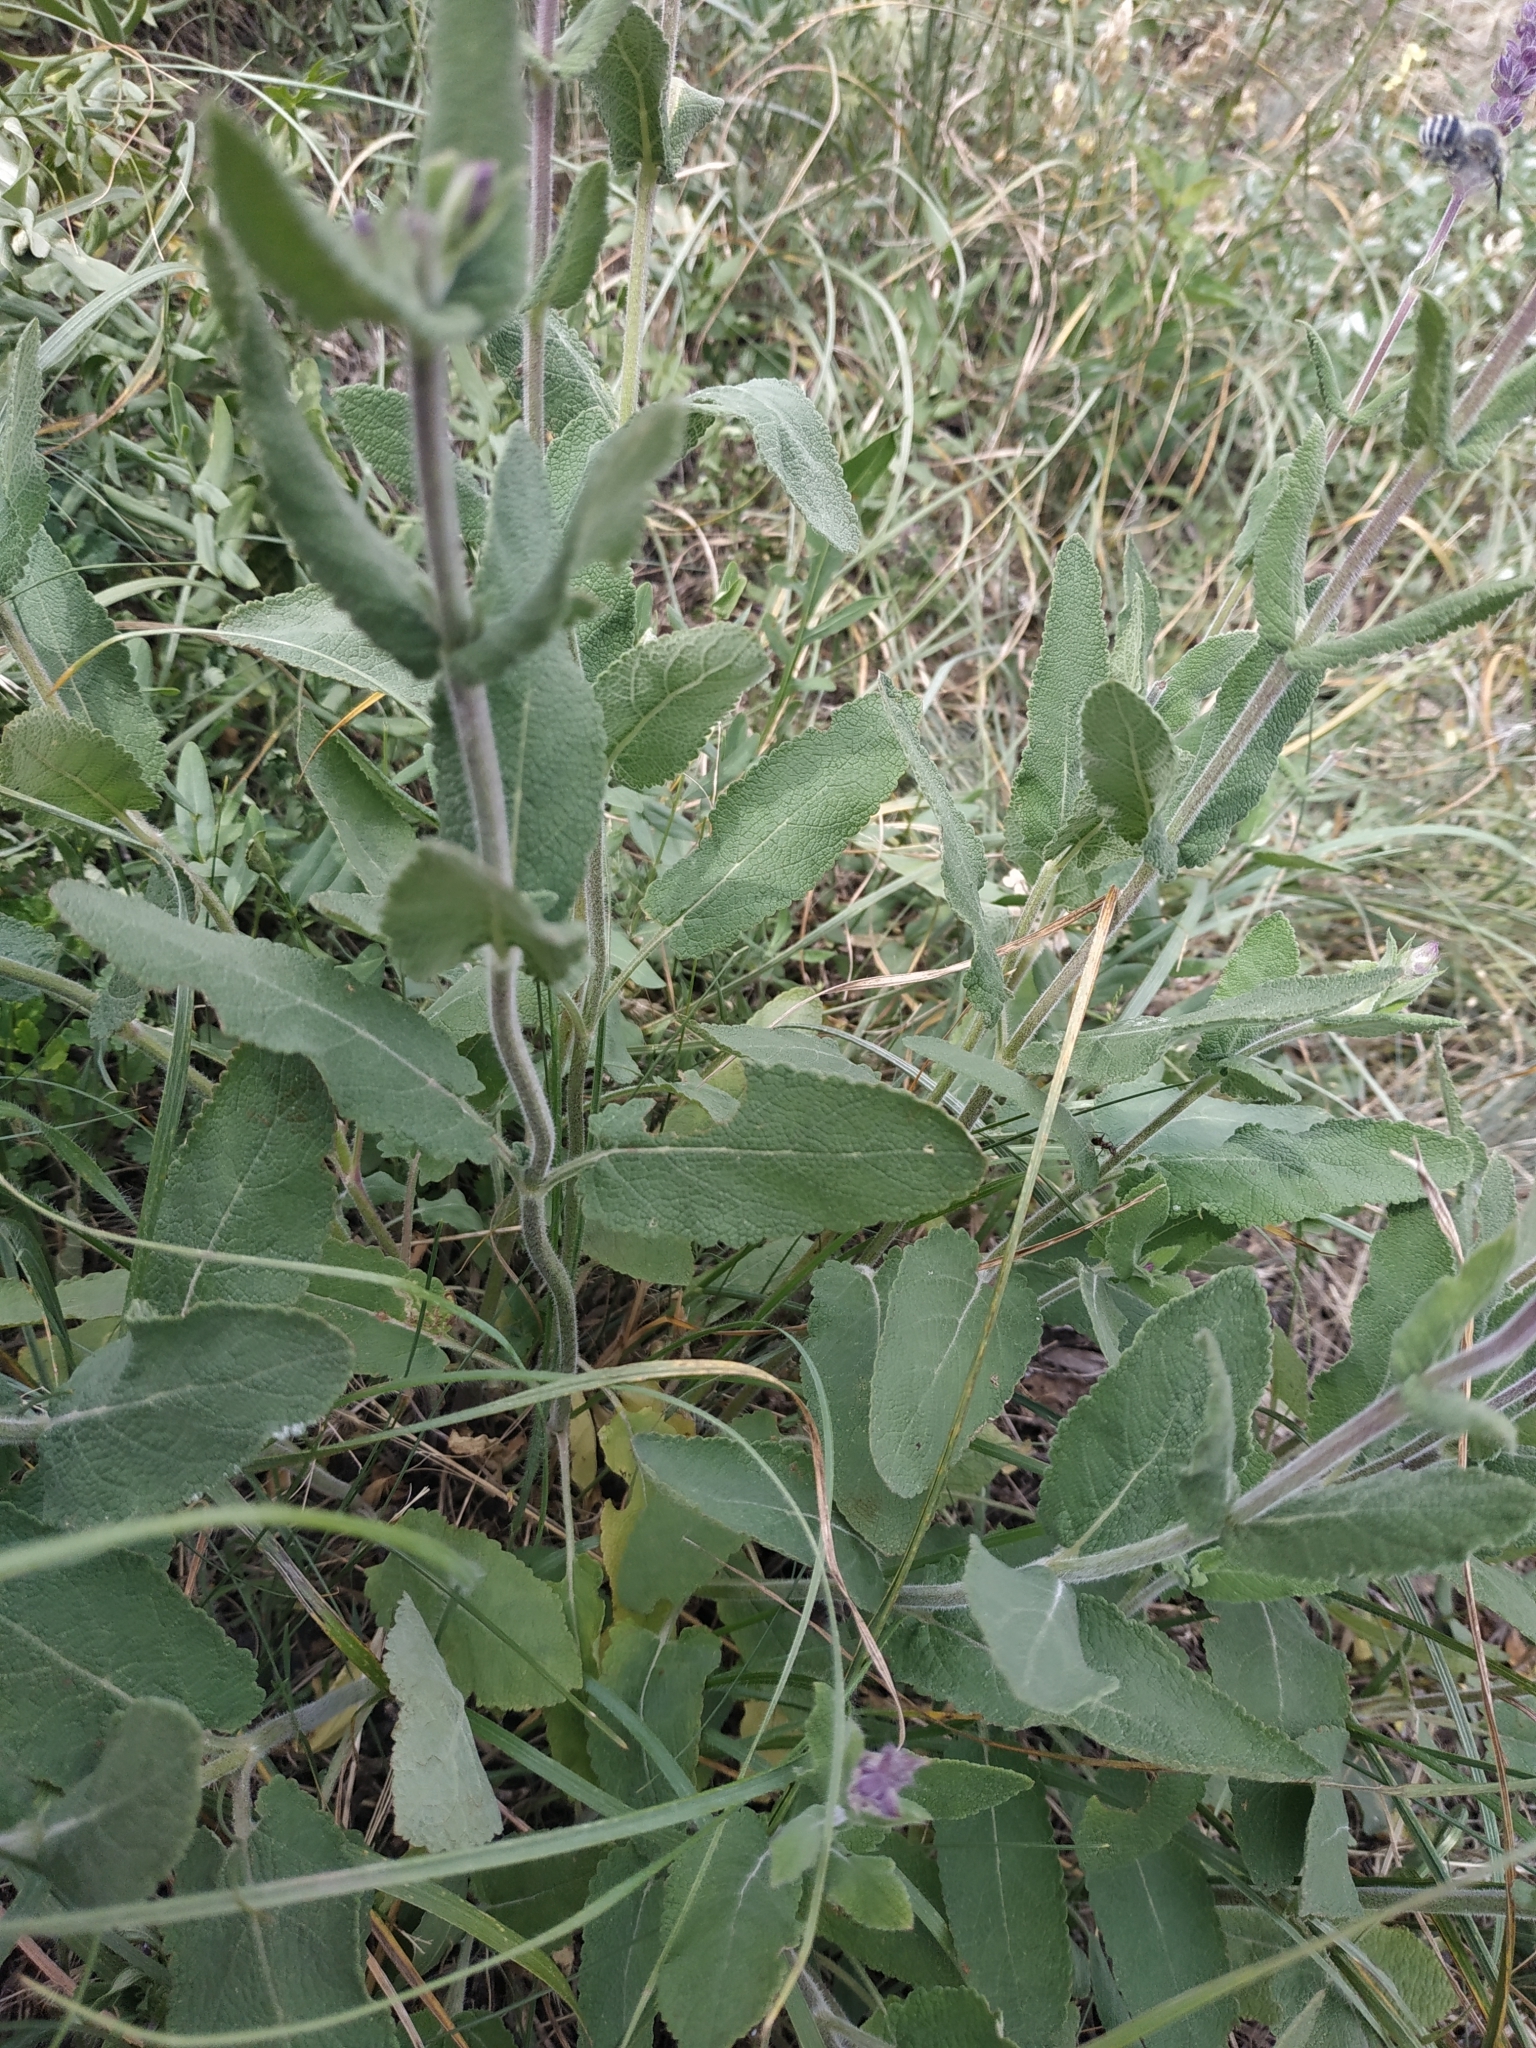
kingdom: Plantae
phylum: Tracheophyta
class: Magnoliopsida
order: Lamiales
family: Lamiaceae
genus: Salvia
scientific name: Salvia nemorosa
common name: Balkan clary
